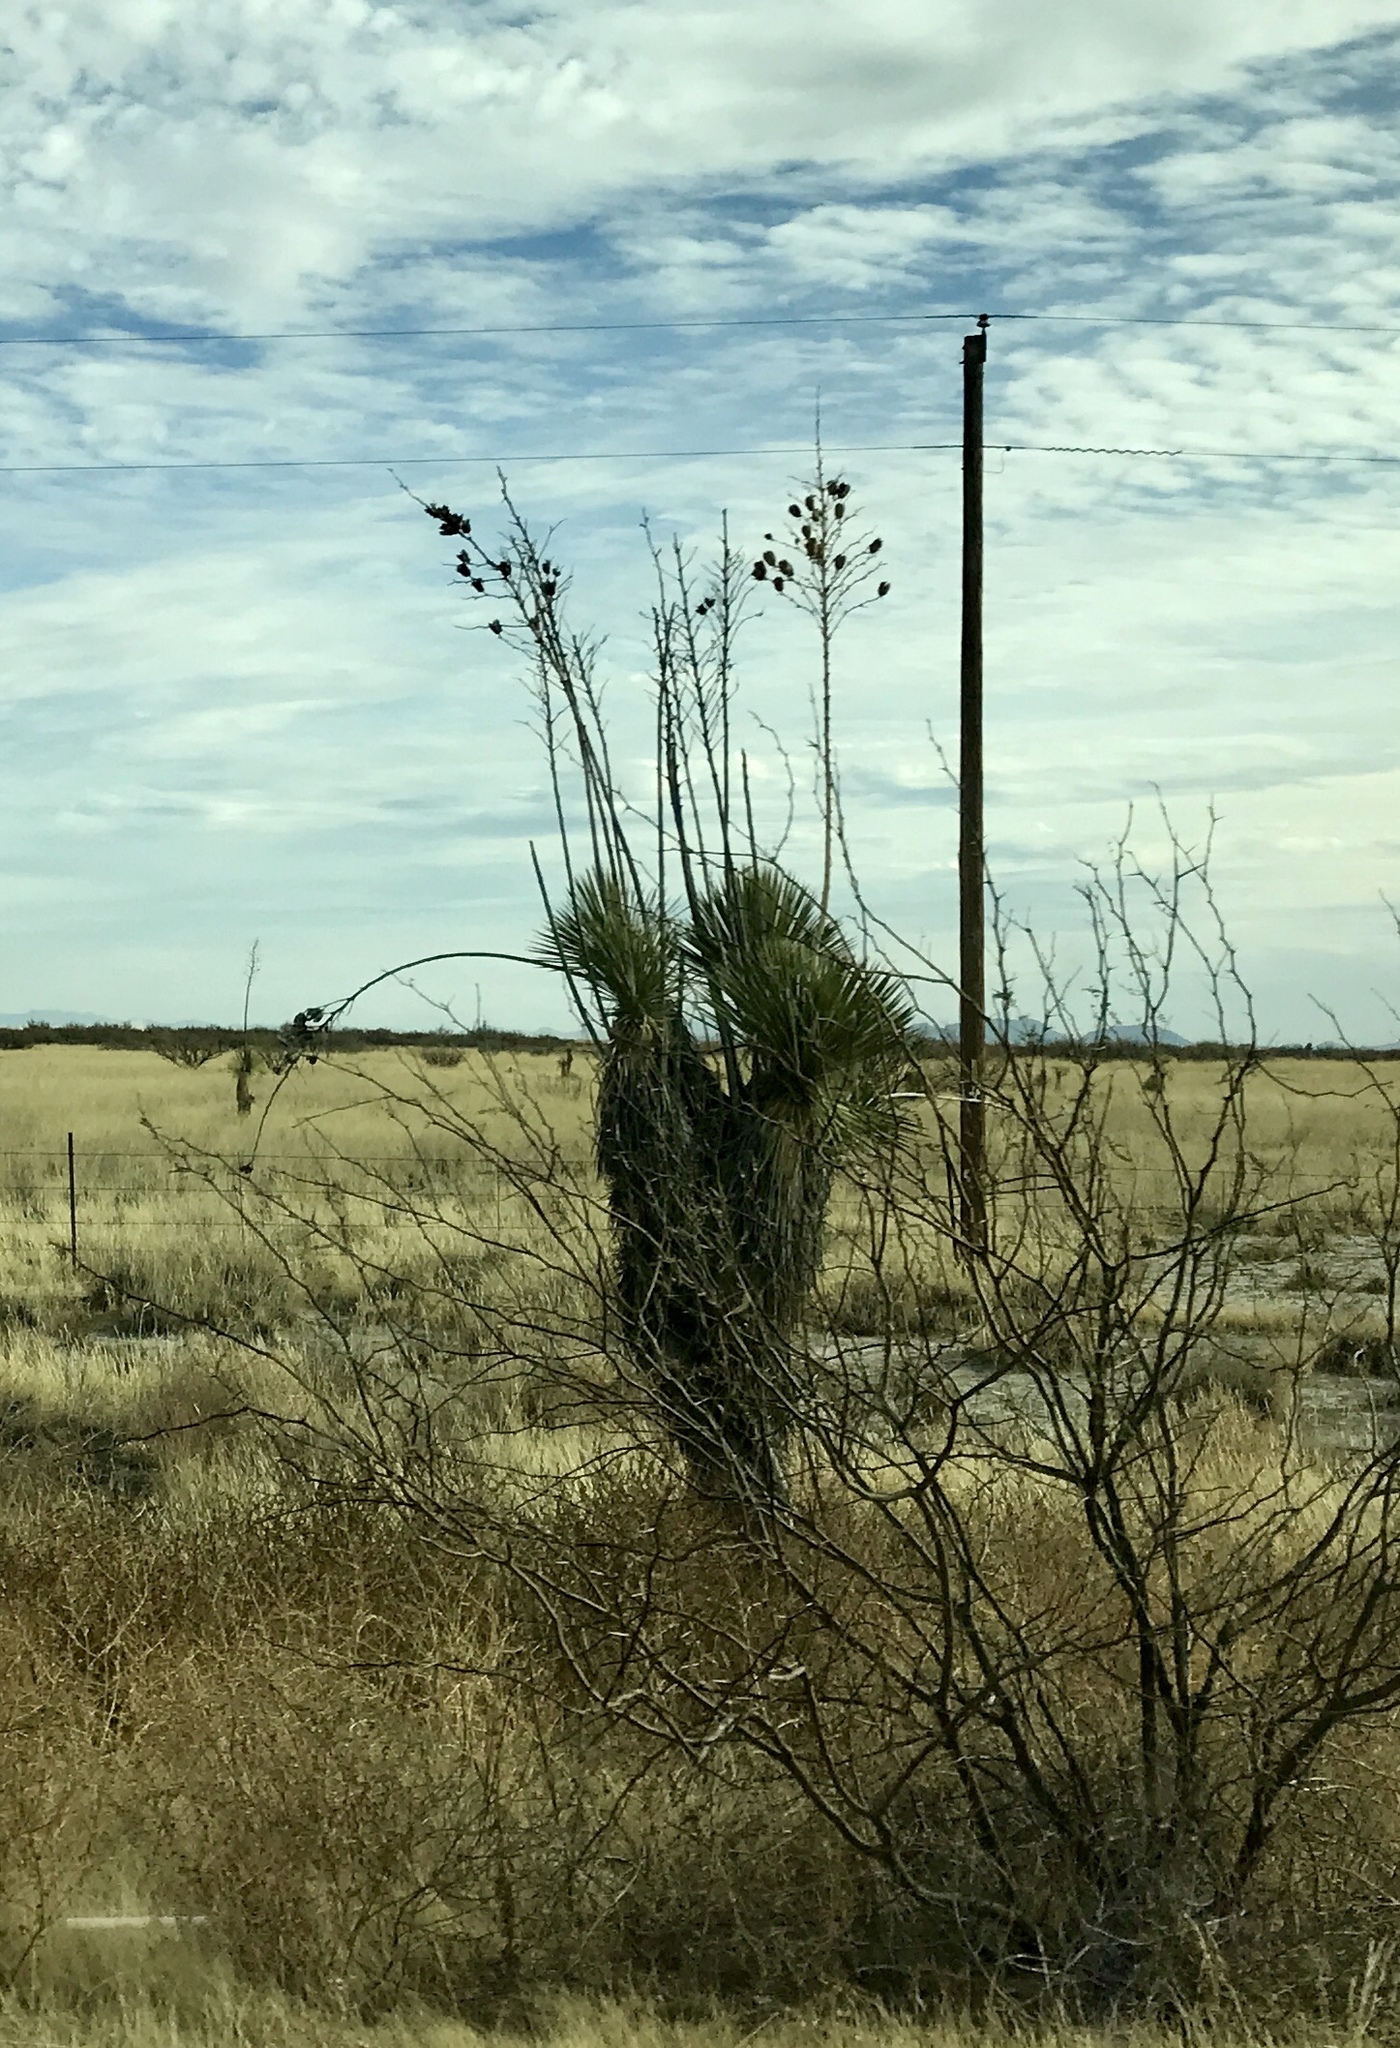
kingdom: Plantae
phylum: Tracheophyta
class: Liliopsida
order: Asparagales
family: Asparagaceae
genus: Yucca
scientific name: Yucca elata
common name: Palmella
